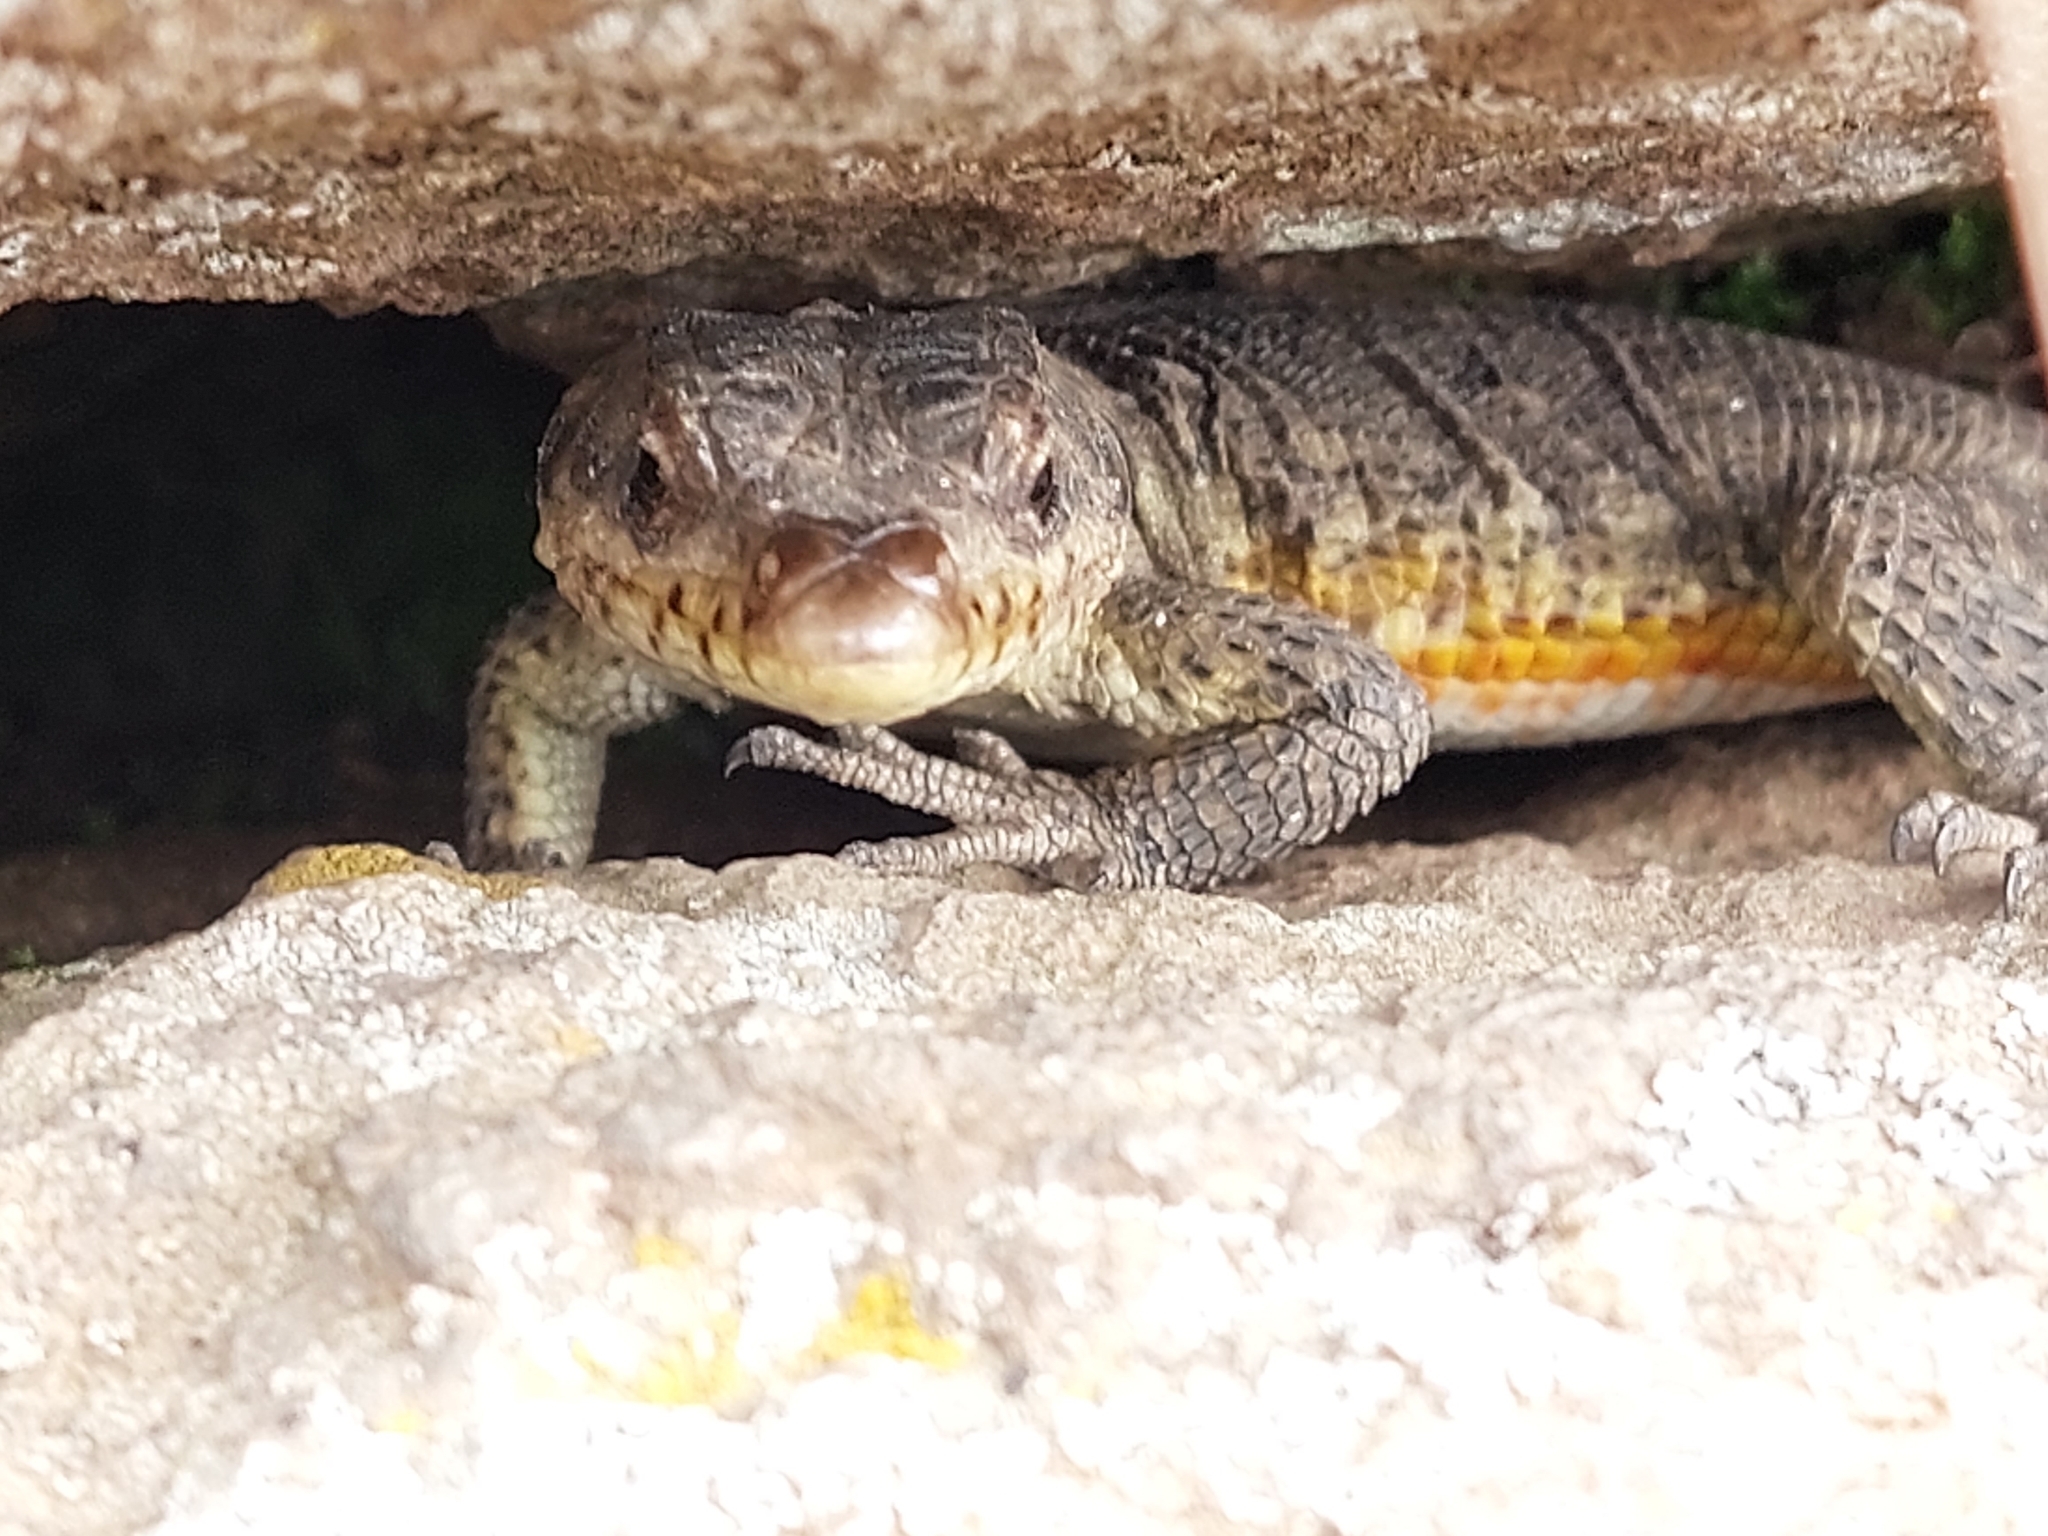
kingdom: Animalia
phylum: Chordata
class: Squamata
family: Cordylidae
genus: Pseudocordylus
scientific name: Pseudocordylus subviridis
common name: Drakensberg crag lizard
